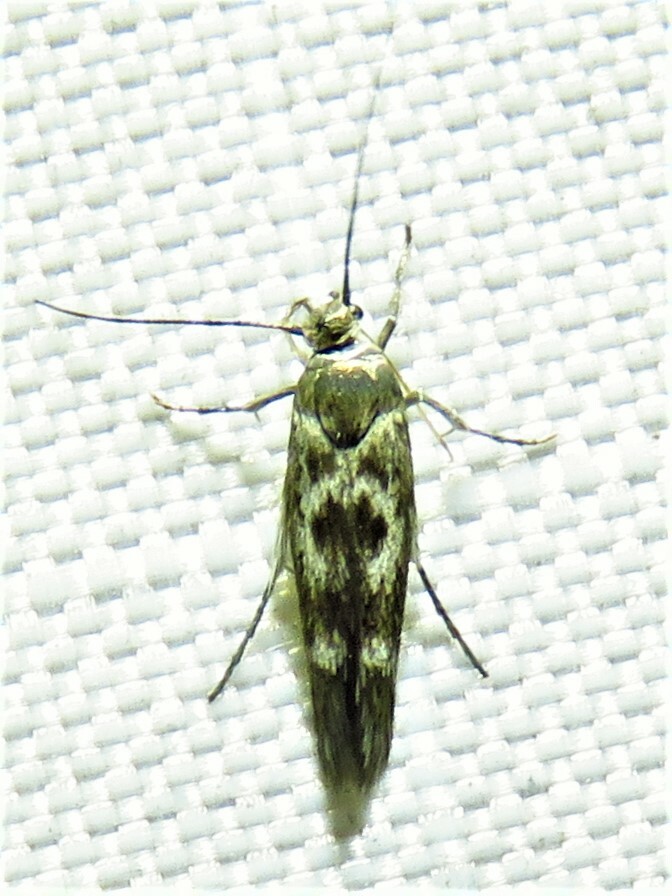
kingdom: Animalia
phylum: Arthropoda
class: Insecta
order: Lepidoptera
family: Scythrididae
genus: Scythris
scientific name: Scythris trivinctella
